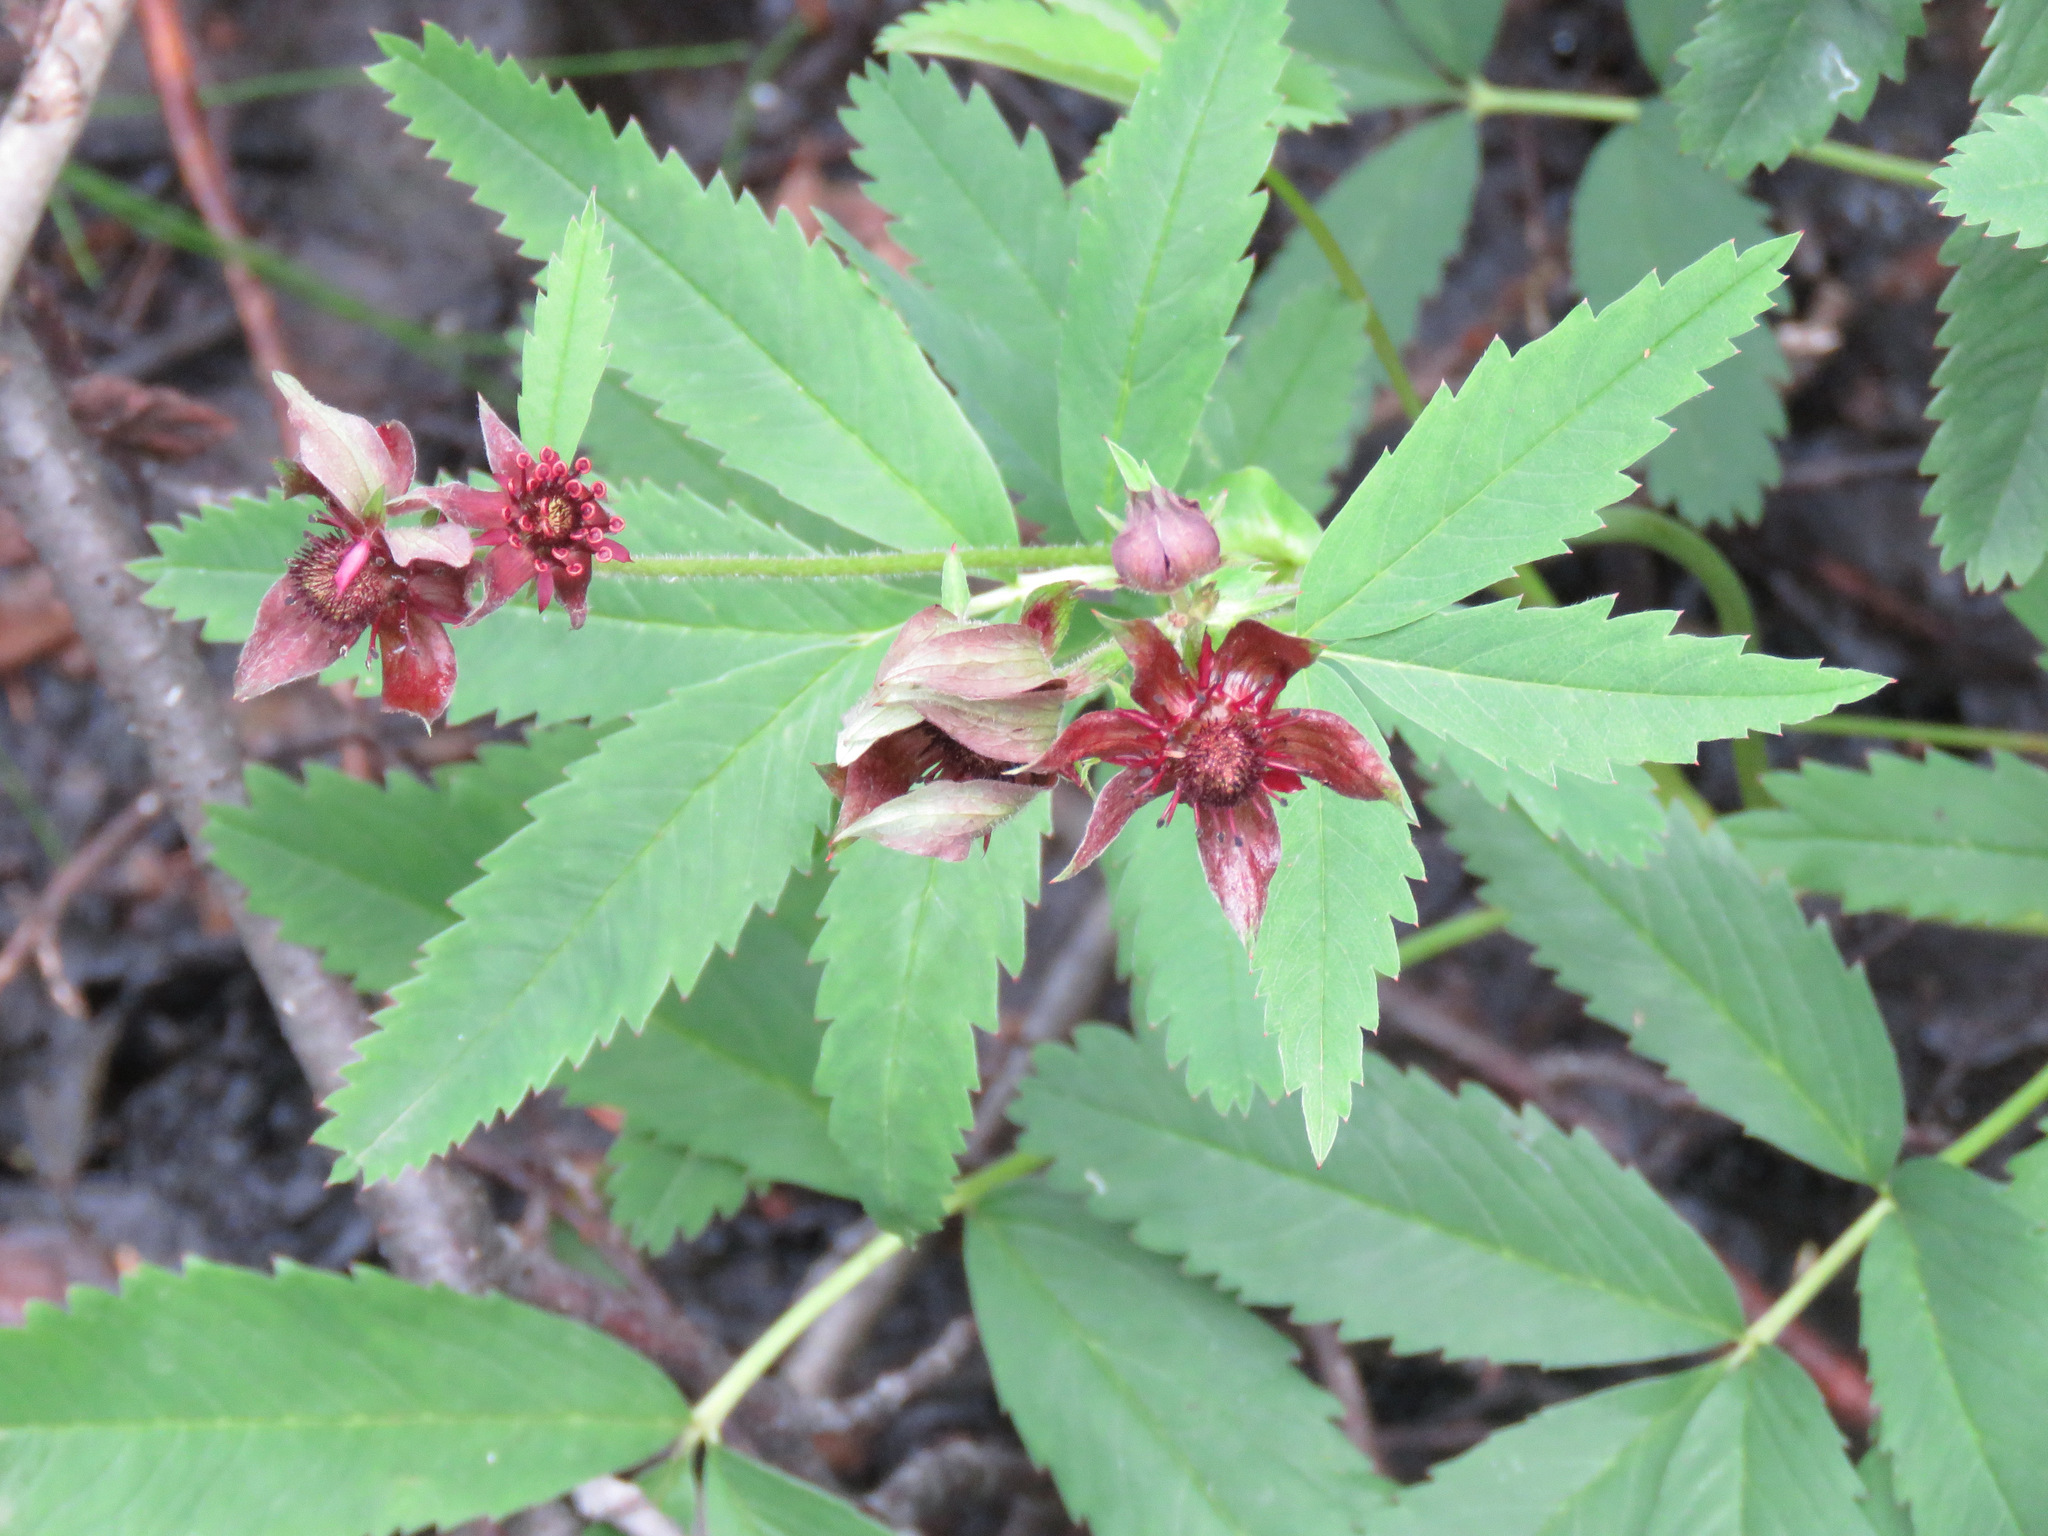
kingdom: Plantae
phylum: Tracheophyta
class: Magnoliopsida
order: Rosales
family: Rosaceae
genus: Comarum
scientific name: Comarum palustre
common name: Marsh cinquefoil
